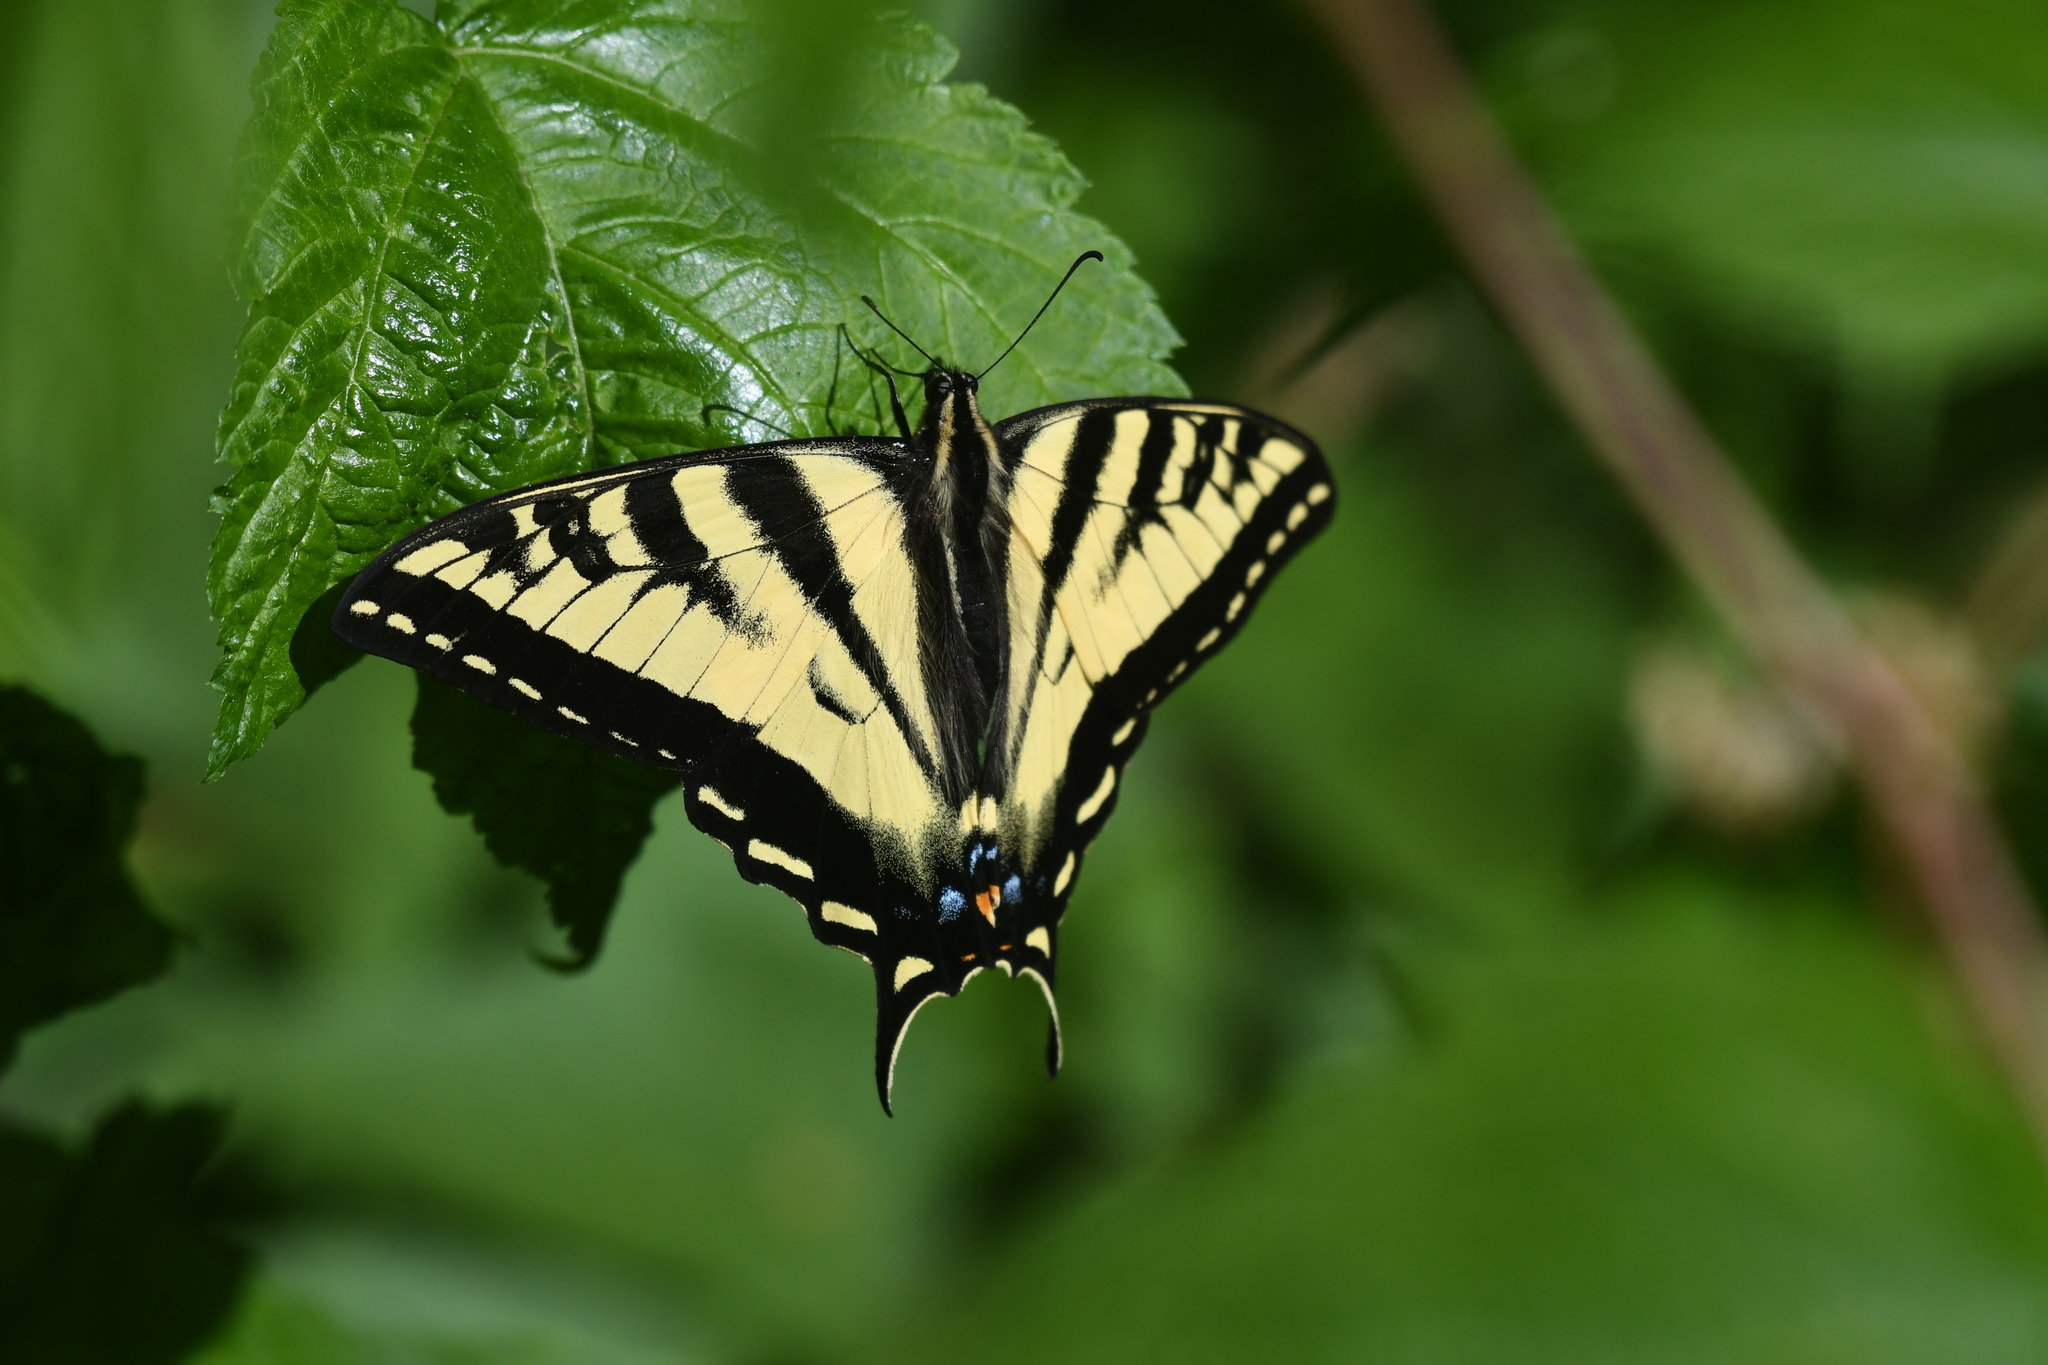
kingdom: Animalia
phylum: Arthropoda
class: Insecta
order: Lepidoptera
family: Papilionidae
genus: Papilio
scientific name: Papilio rutulus
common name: Western tiger swallowtail
